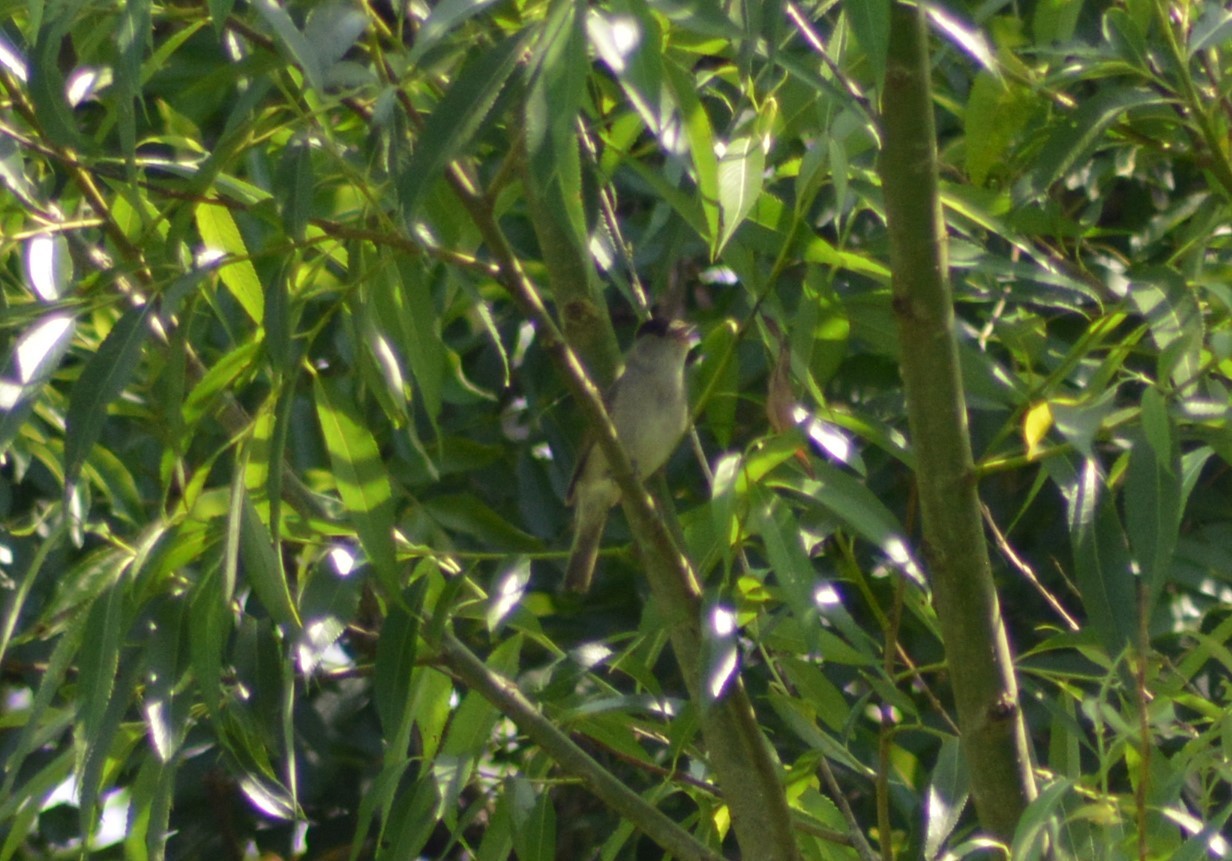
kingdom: Animalia
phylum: Chordata
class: Aves
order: Passeriformes
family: Sylviidae
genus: Sylvia
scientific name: Sylvia atricapilla
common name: Eurasian blackcap
